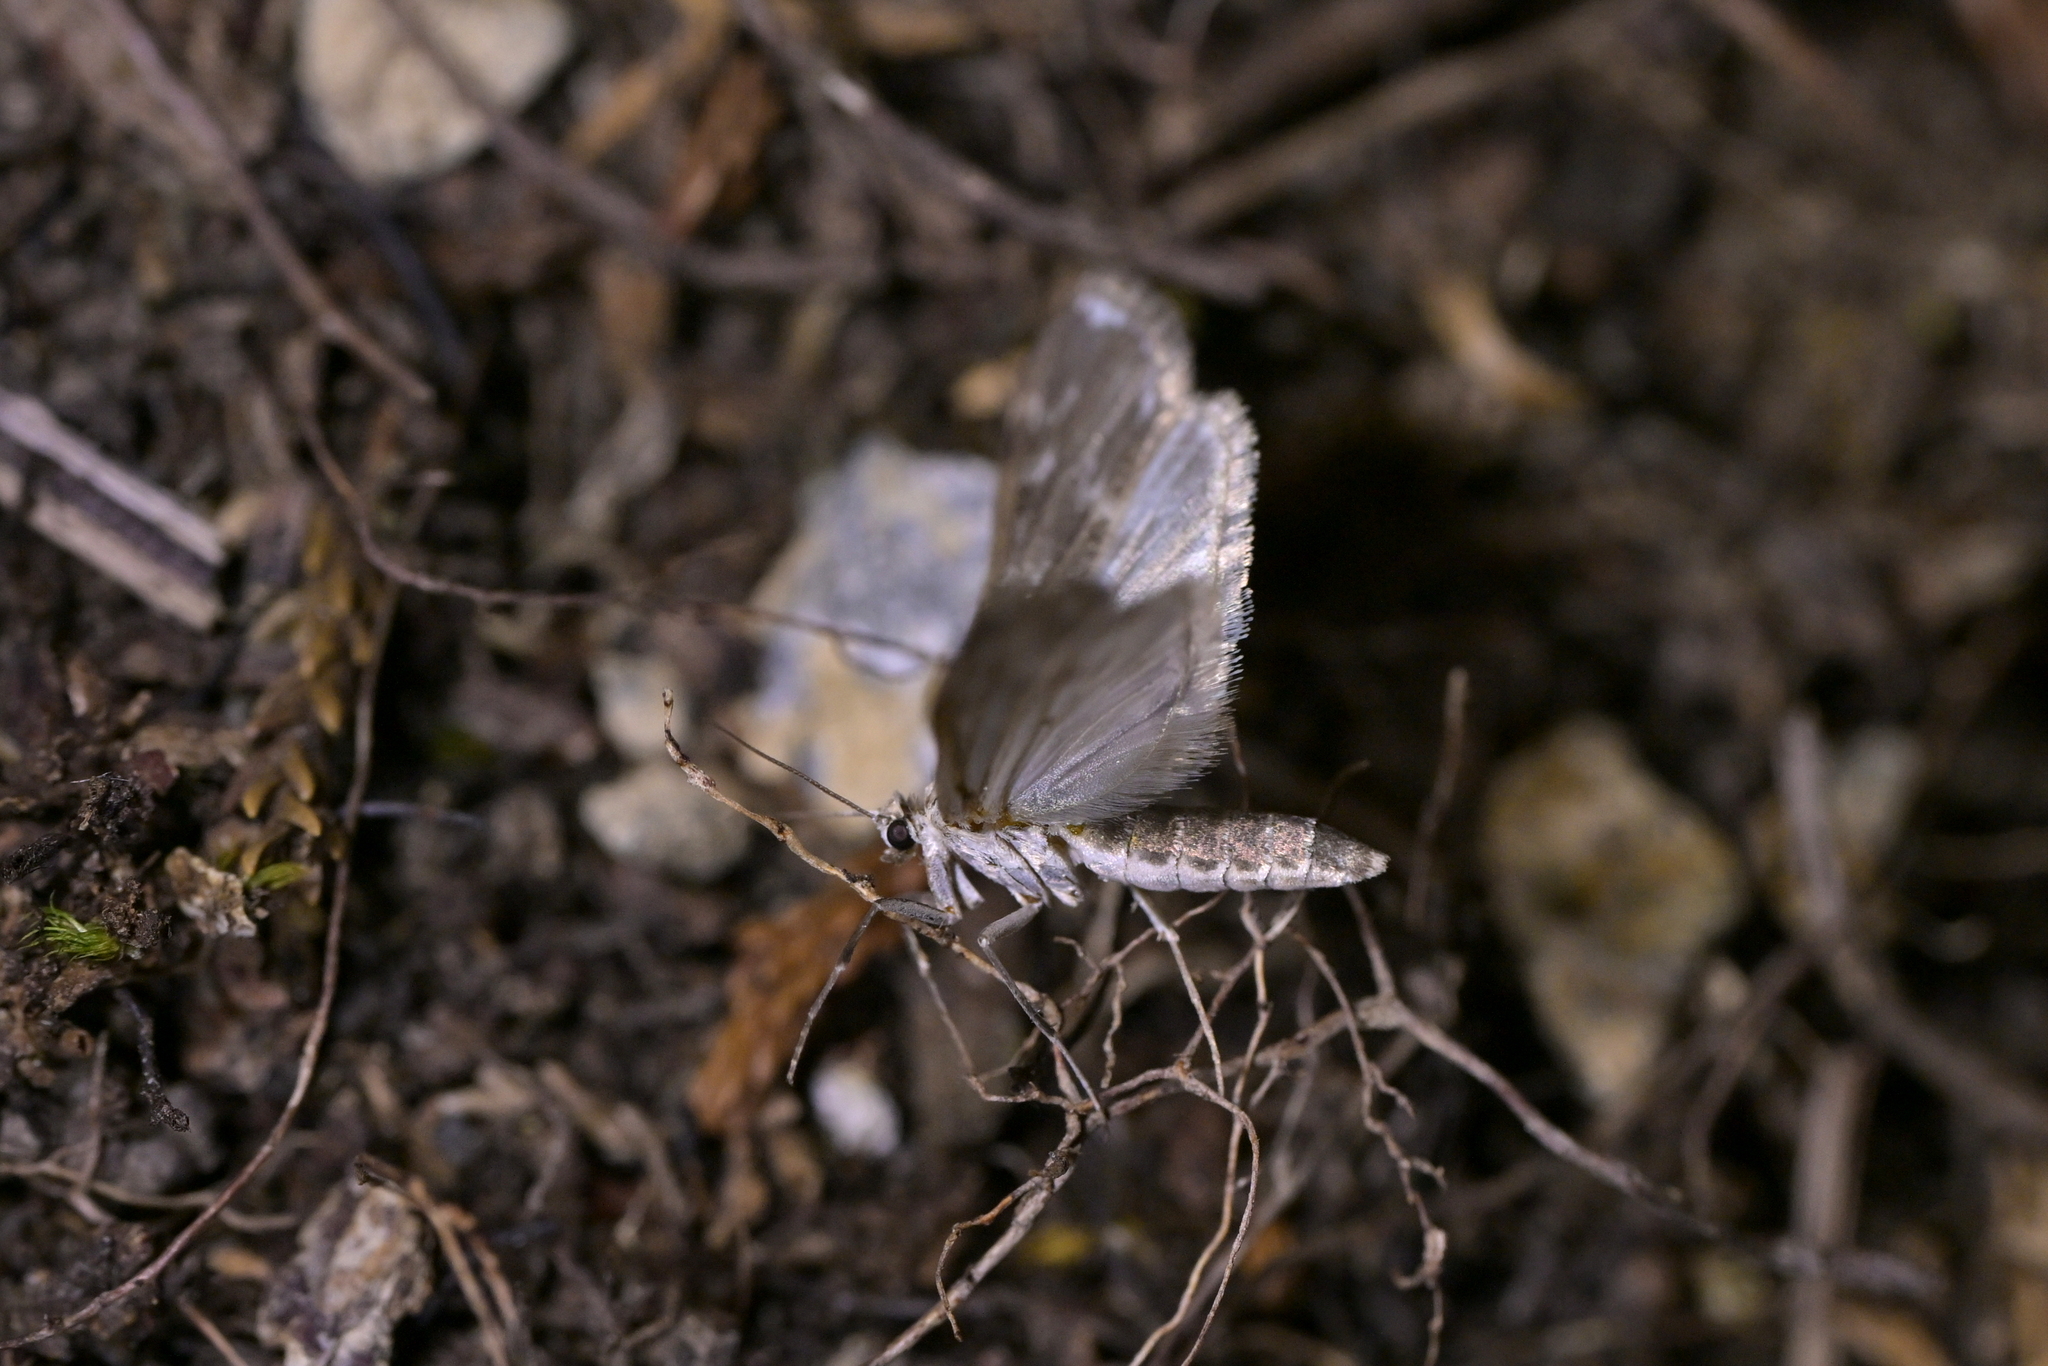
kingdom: Animalia
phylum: Arthropoda
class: Insecta
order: Lepidoptera
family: Crambidae
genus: Hygraula
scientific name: Hygraula nitens
